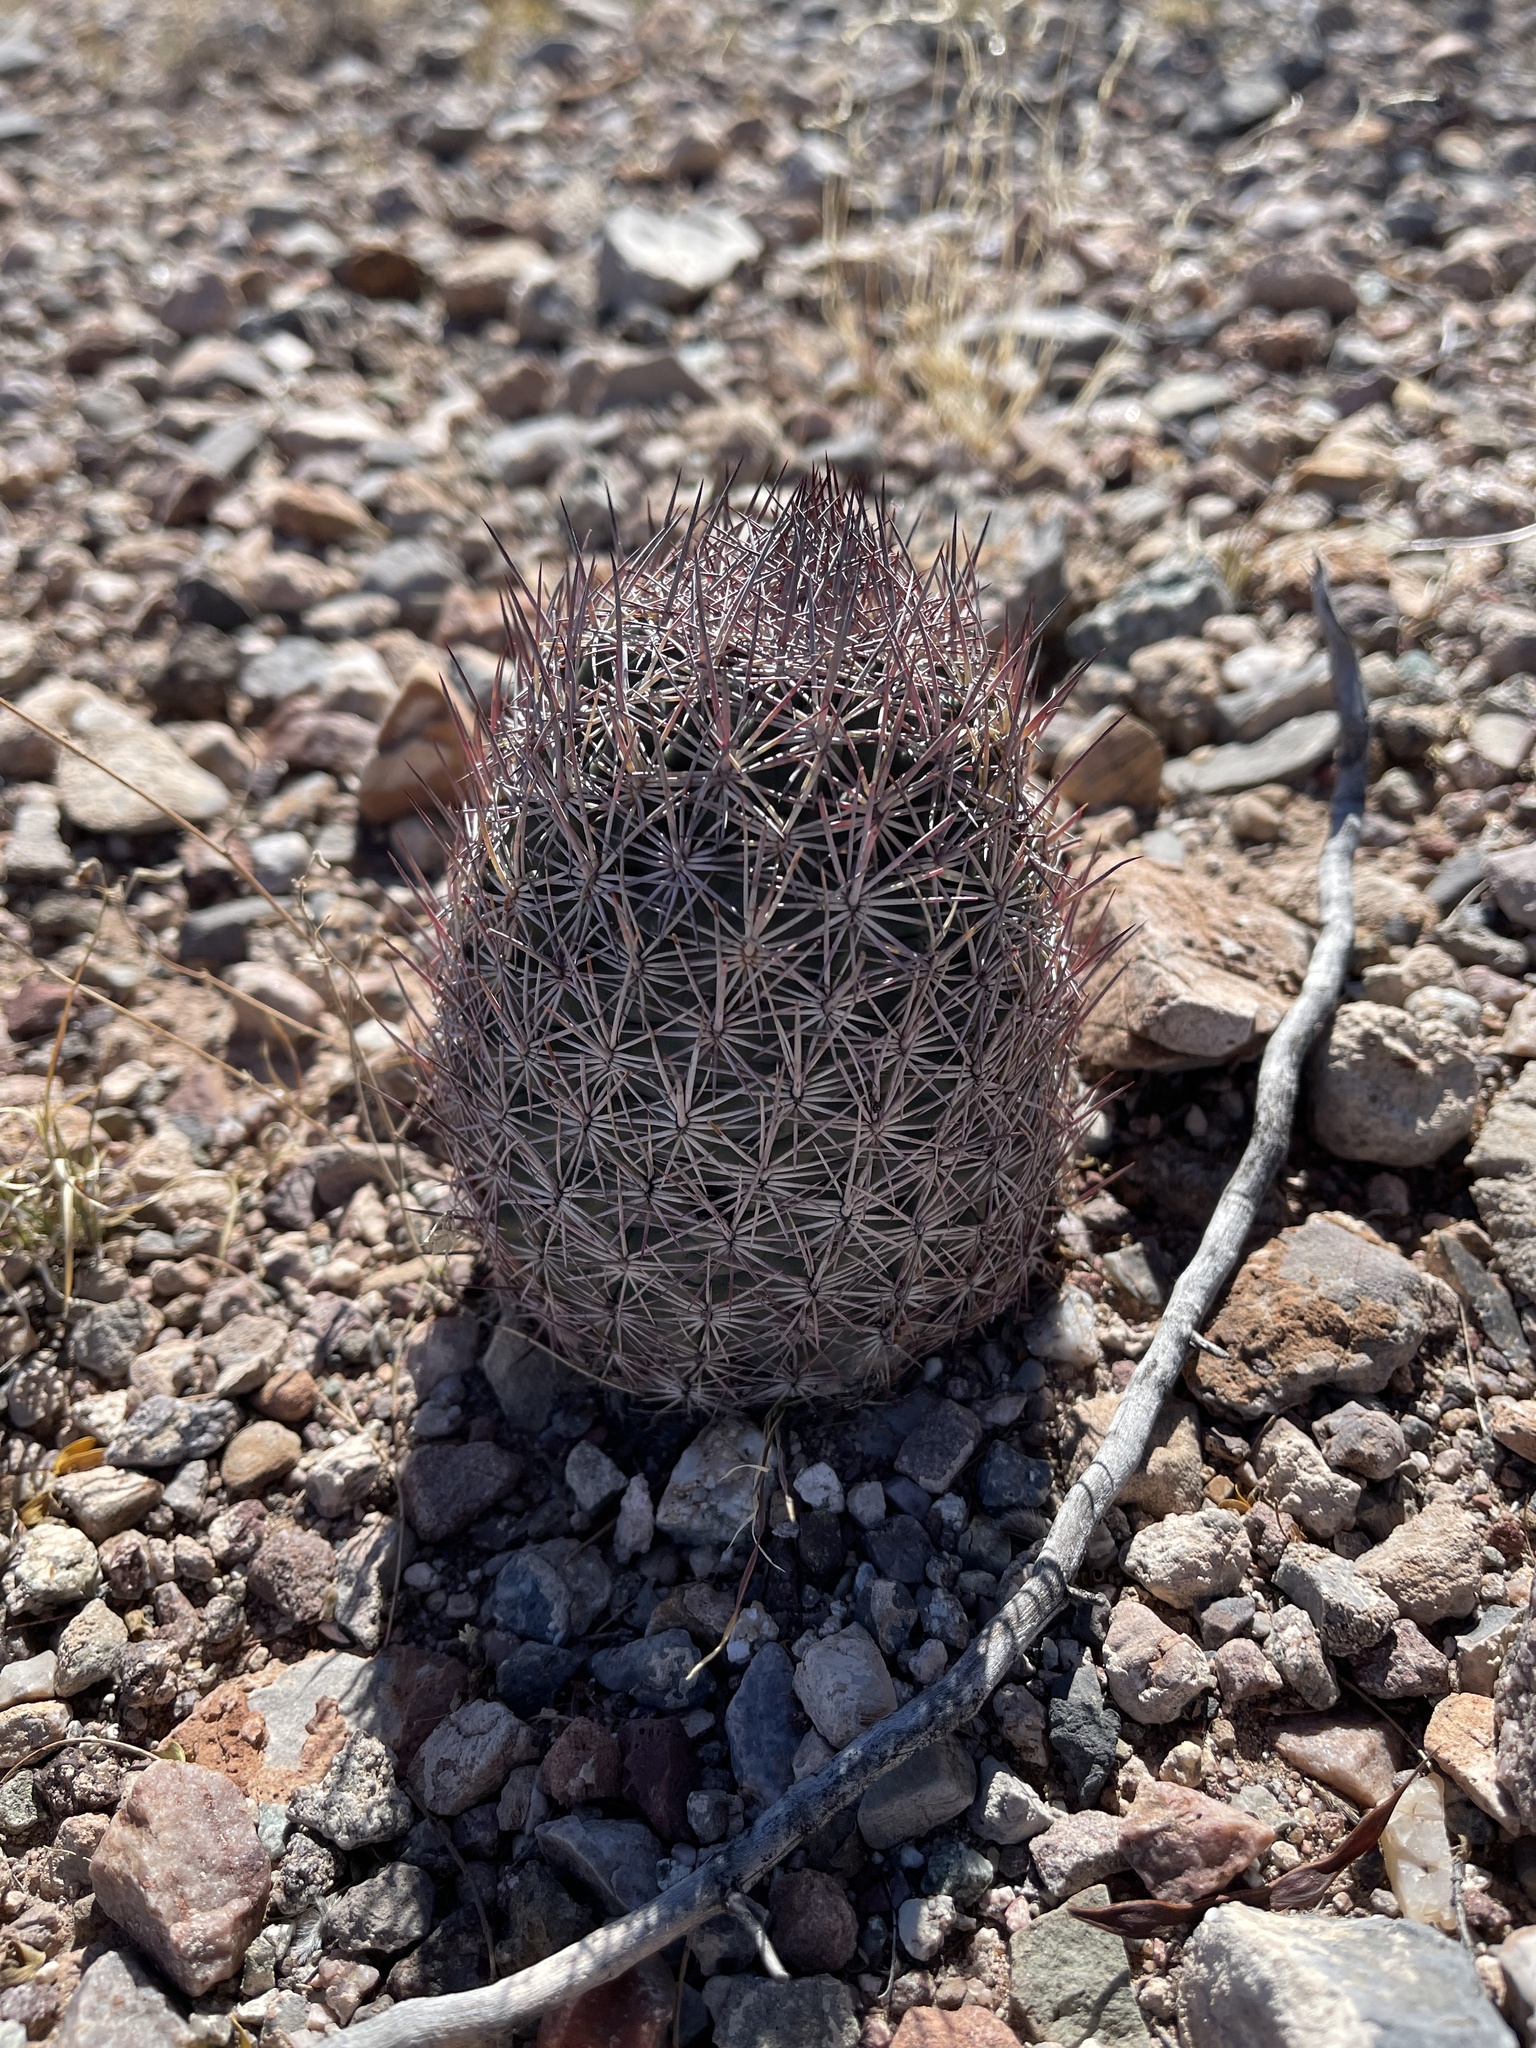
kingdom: Plantae
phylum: Tracheophyta
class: Magnoliopsida
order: Caryophyllales
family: Cactaceae
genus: Sclerocactus
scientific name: Sclerocactus johnsonii
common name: Eight-spine fishhook cactus
